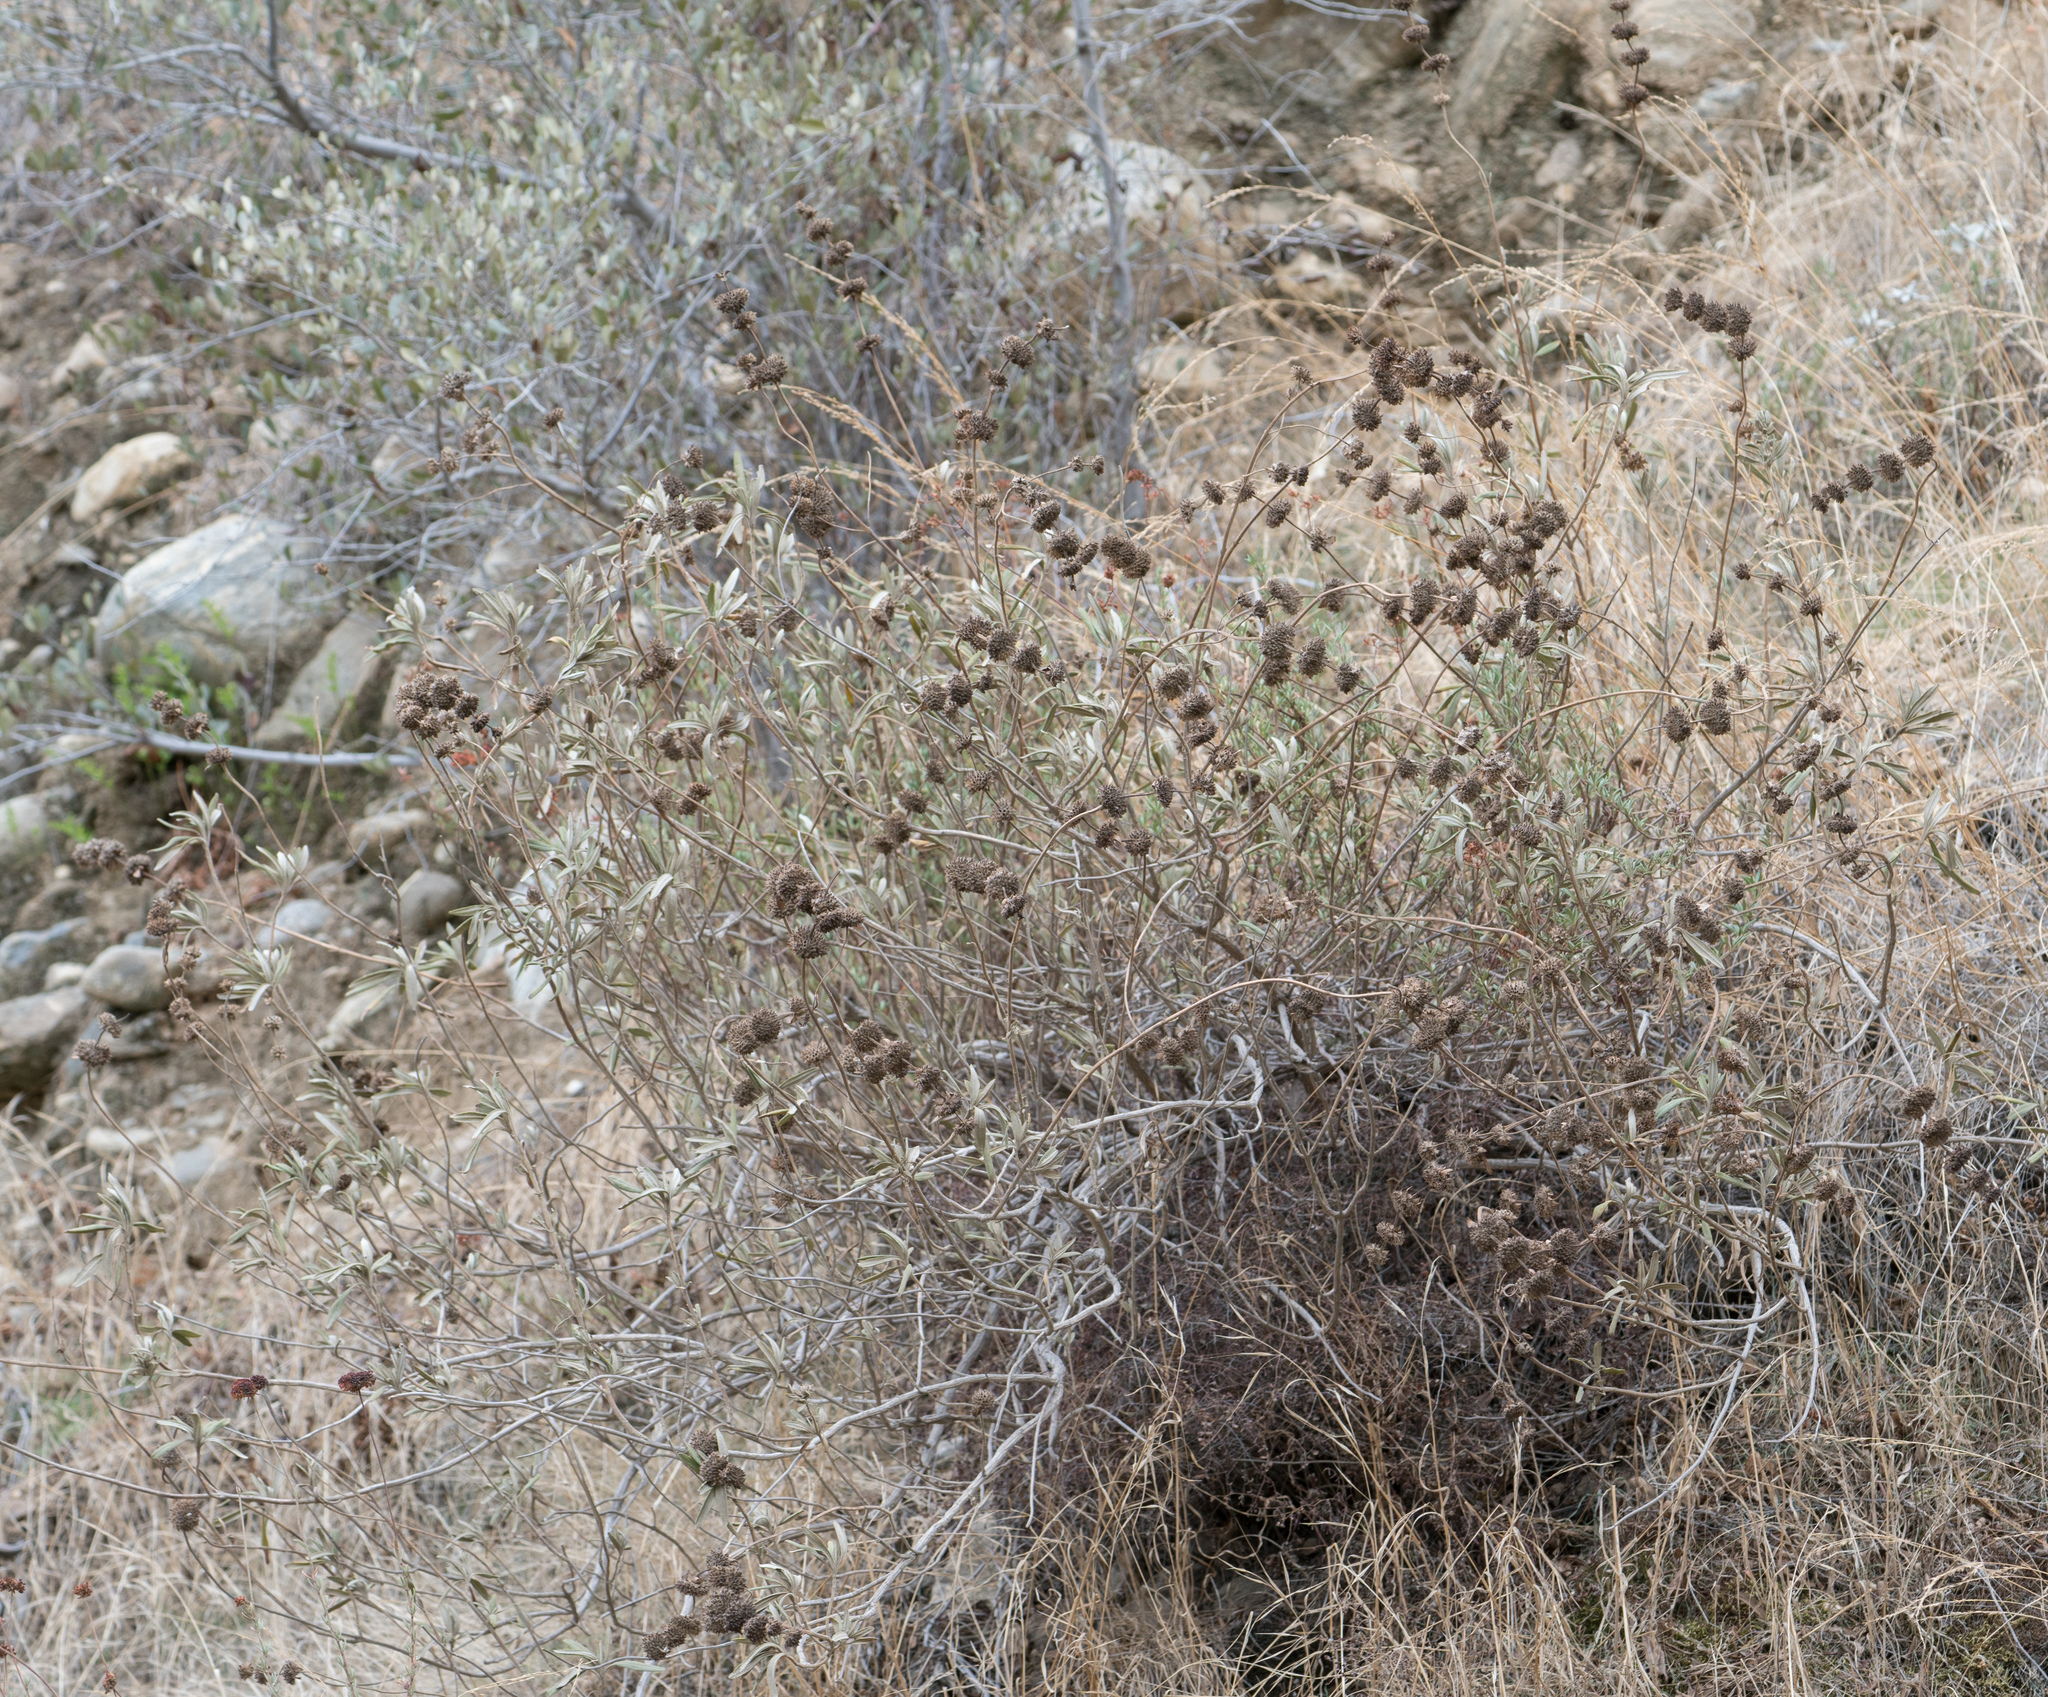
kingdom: Plantae
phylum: Tracheophyta
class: Magnoliopsida
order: Lamiales
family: Lamiaceae
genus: Salvia
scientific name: Salvia mellifera
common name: Black sage
